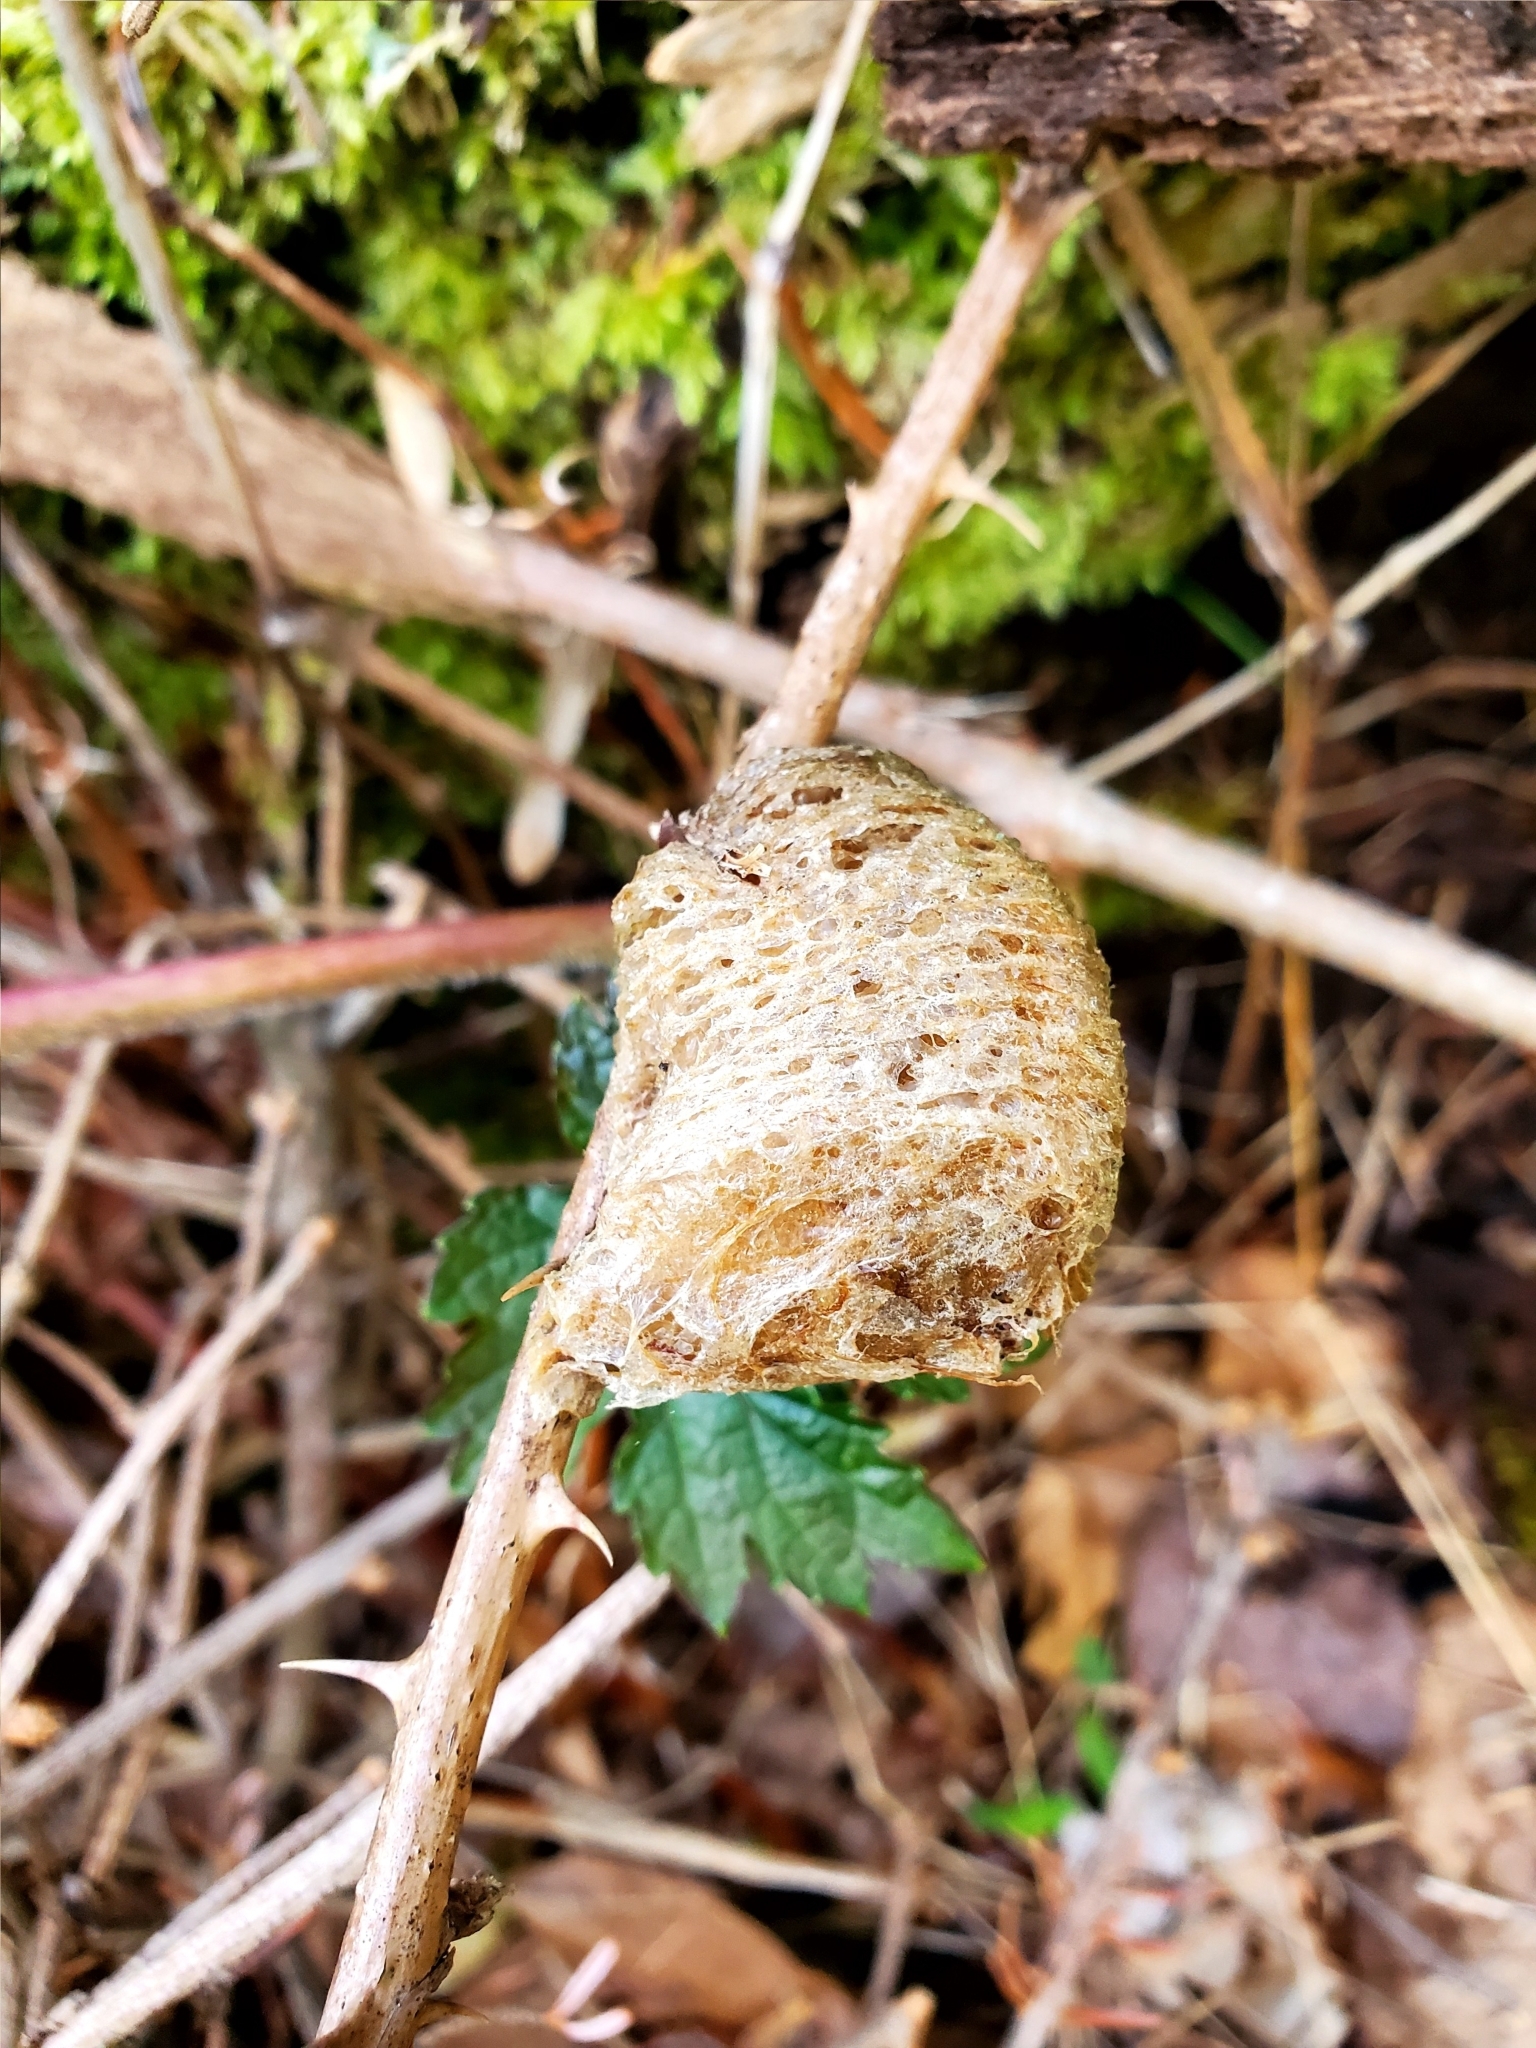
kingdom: Animalia
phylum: Arthropoda
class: Insecta
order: Mantodea
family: Mantidae
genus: Tenodera
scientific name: Tenodera sinensis
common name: Chinese mantis
